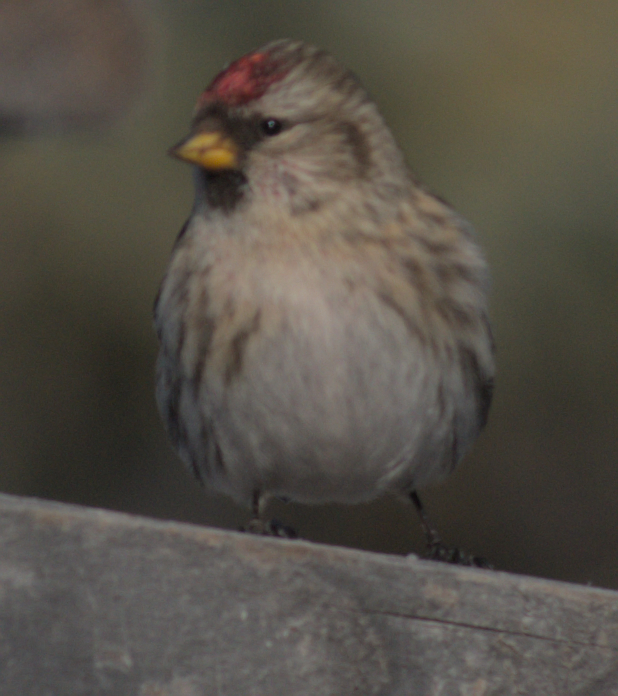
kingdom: Animalia
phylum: Chordata
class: Aves
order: Passeriformes
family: Fringillidae
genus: Acanthis
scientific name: Acanthis flammea
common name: Common redpoll
